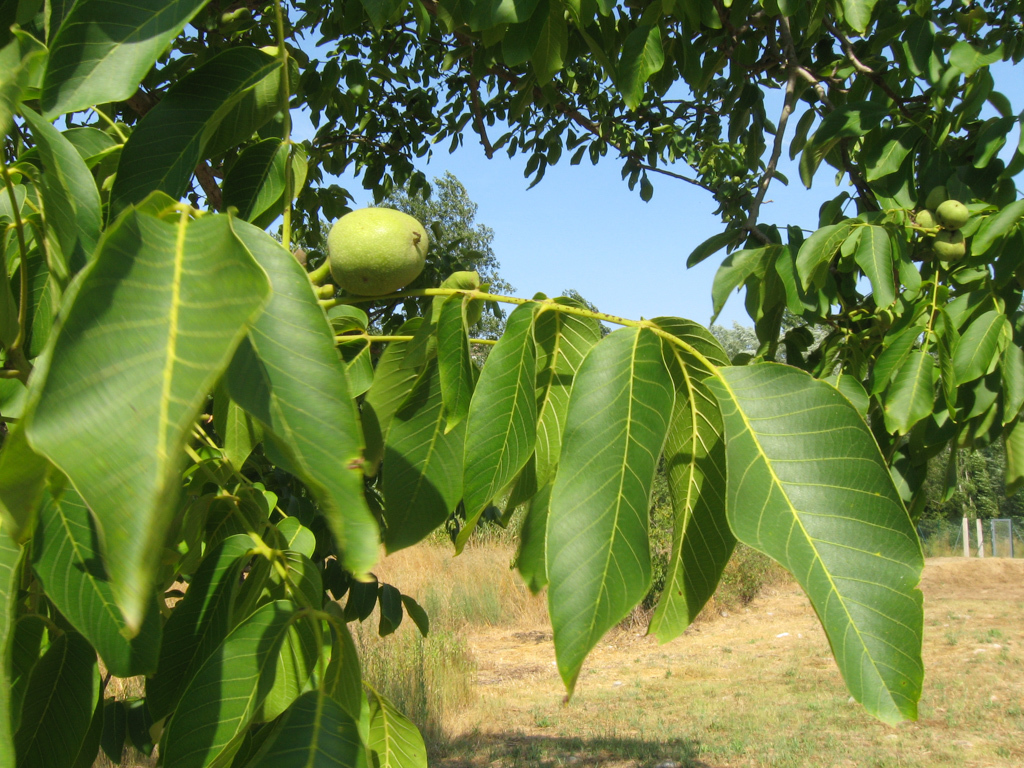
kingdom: Plantae
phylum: Tracheophyta
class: Magnoliopsida
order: Fagales
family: Juglandaceae
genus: Juglans
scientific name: Juglans regia
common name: Walnut
